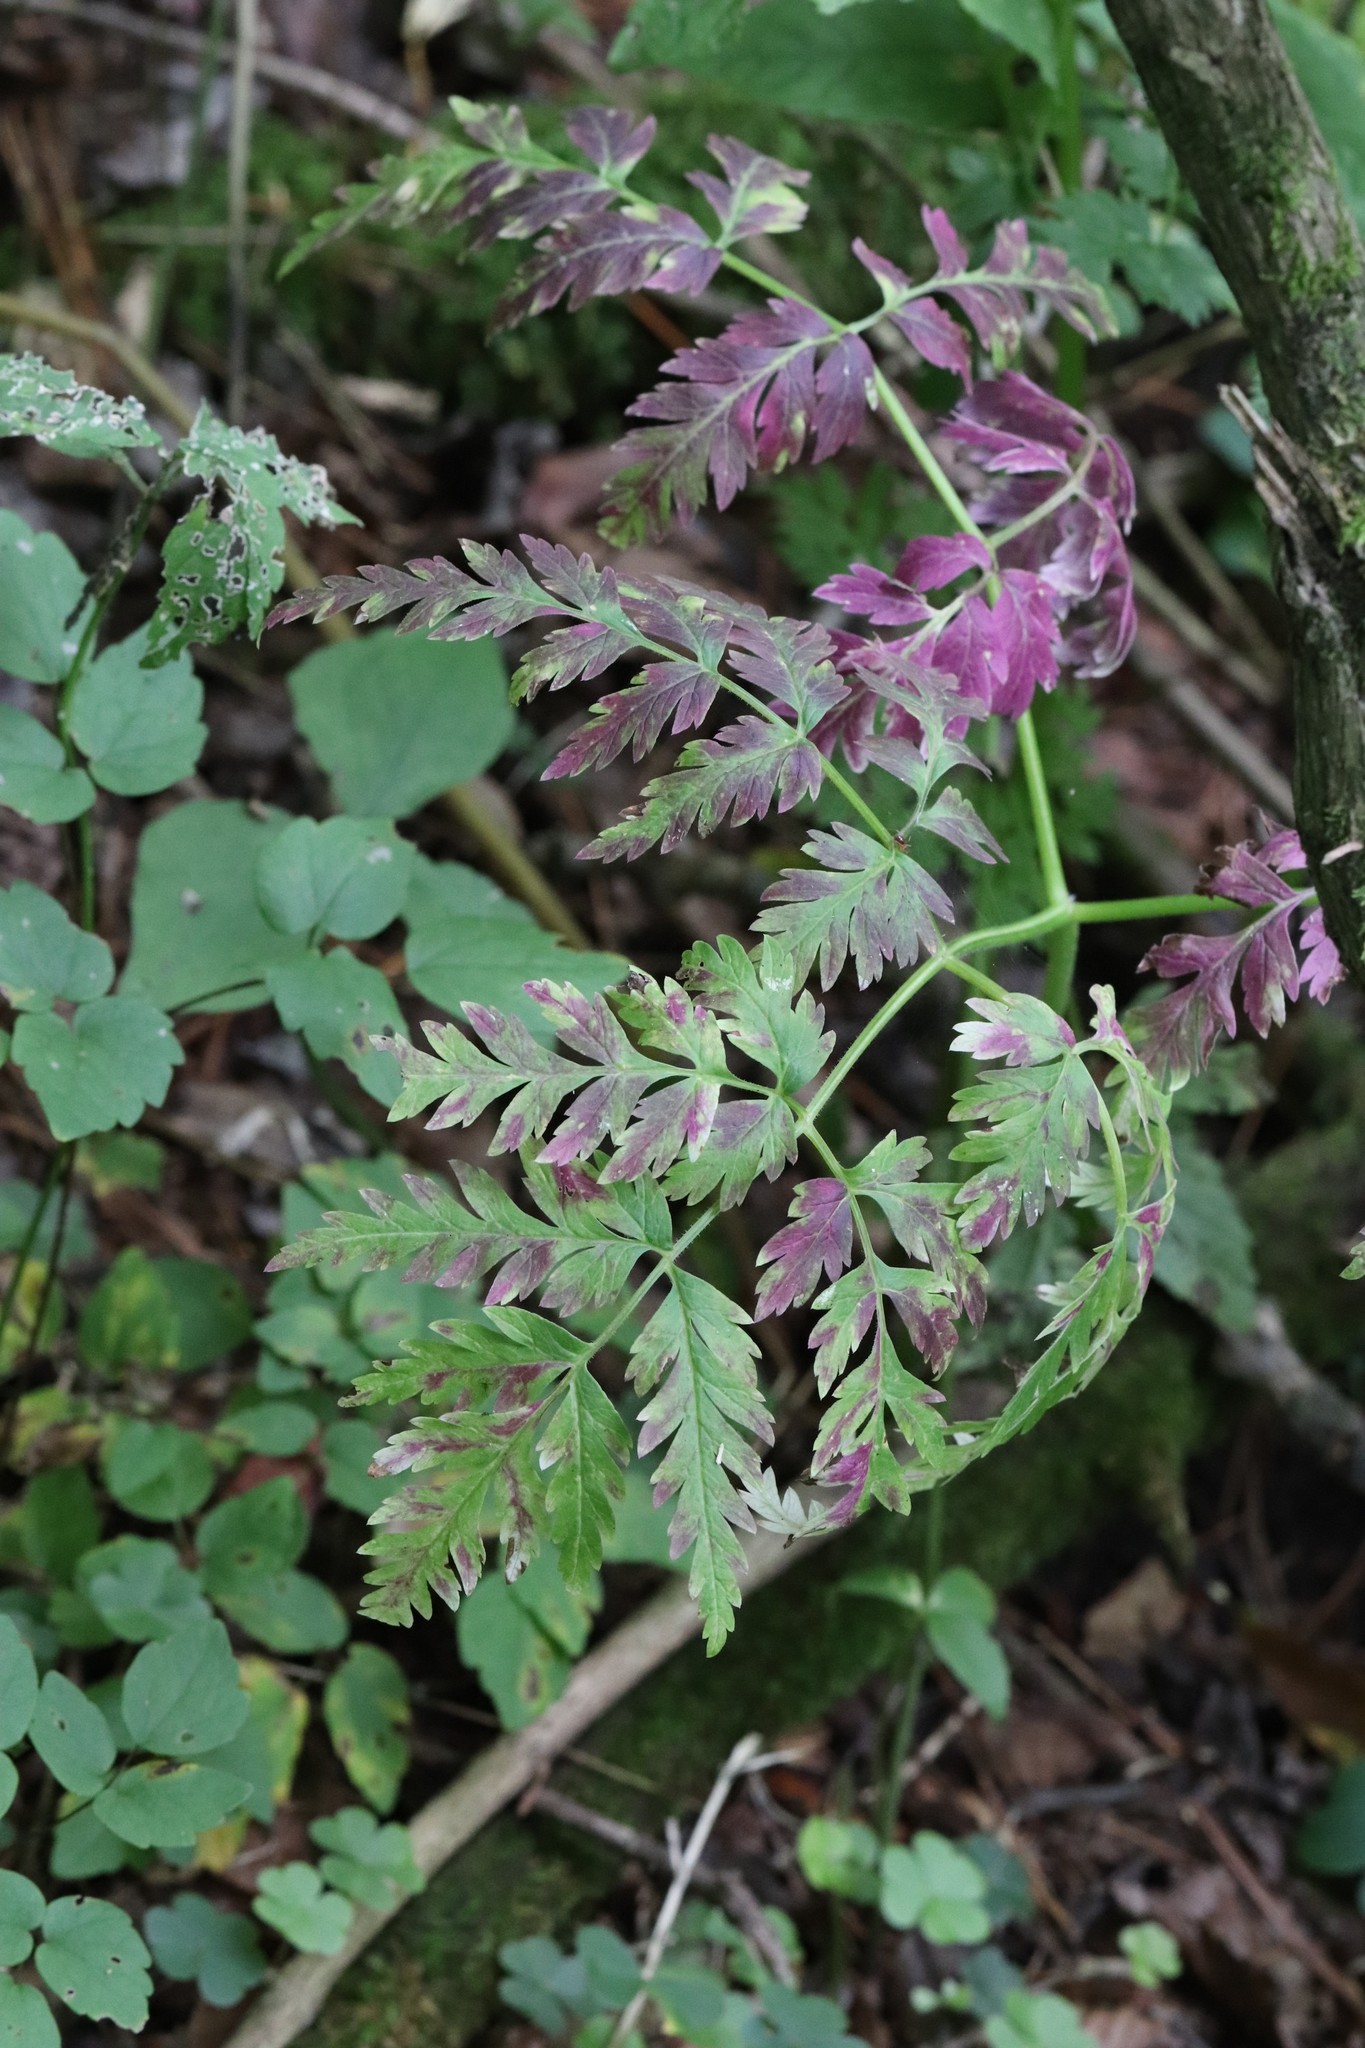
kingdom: Plantae
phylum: Tracheophyta
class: Magnoliopsida
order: Apiales
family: Apiaceae
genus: Anthriscus
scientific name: Anthriscus sylvestris
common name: Cow parsley
